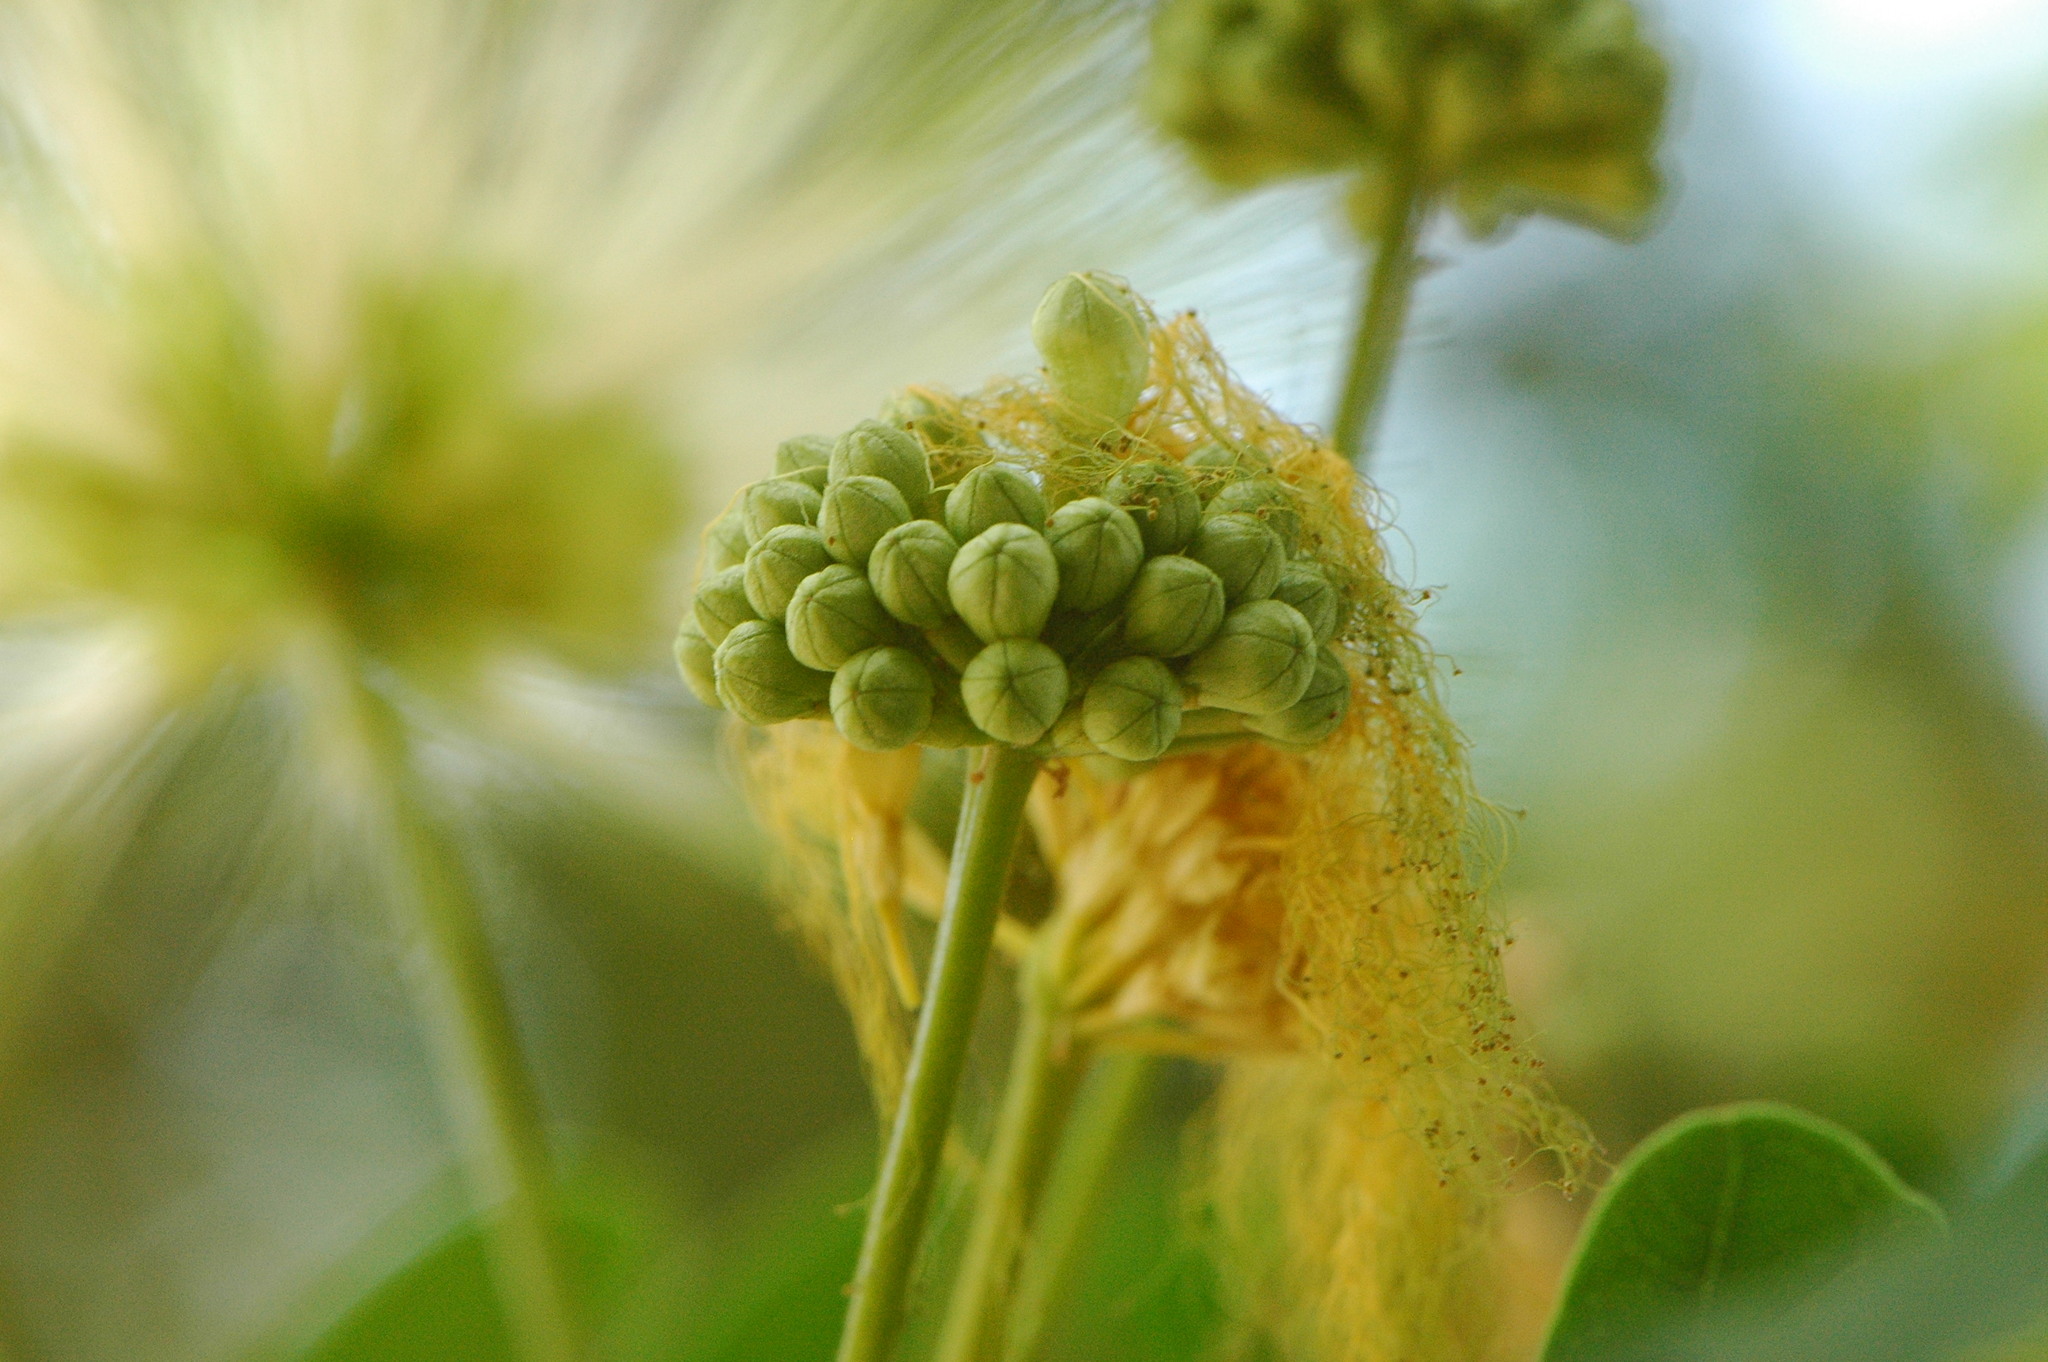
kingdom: Plantae
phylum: Tracheophyta
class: Magnoliopsida
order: Fabales
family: Fabaceae
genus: Albizia
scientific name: Albizia lebbeck
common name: Woman's tongue
